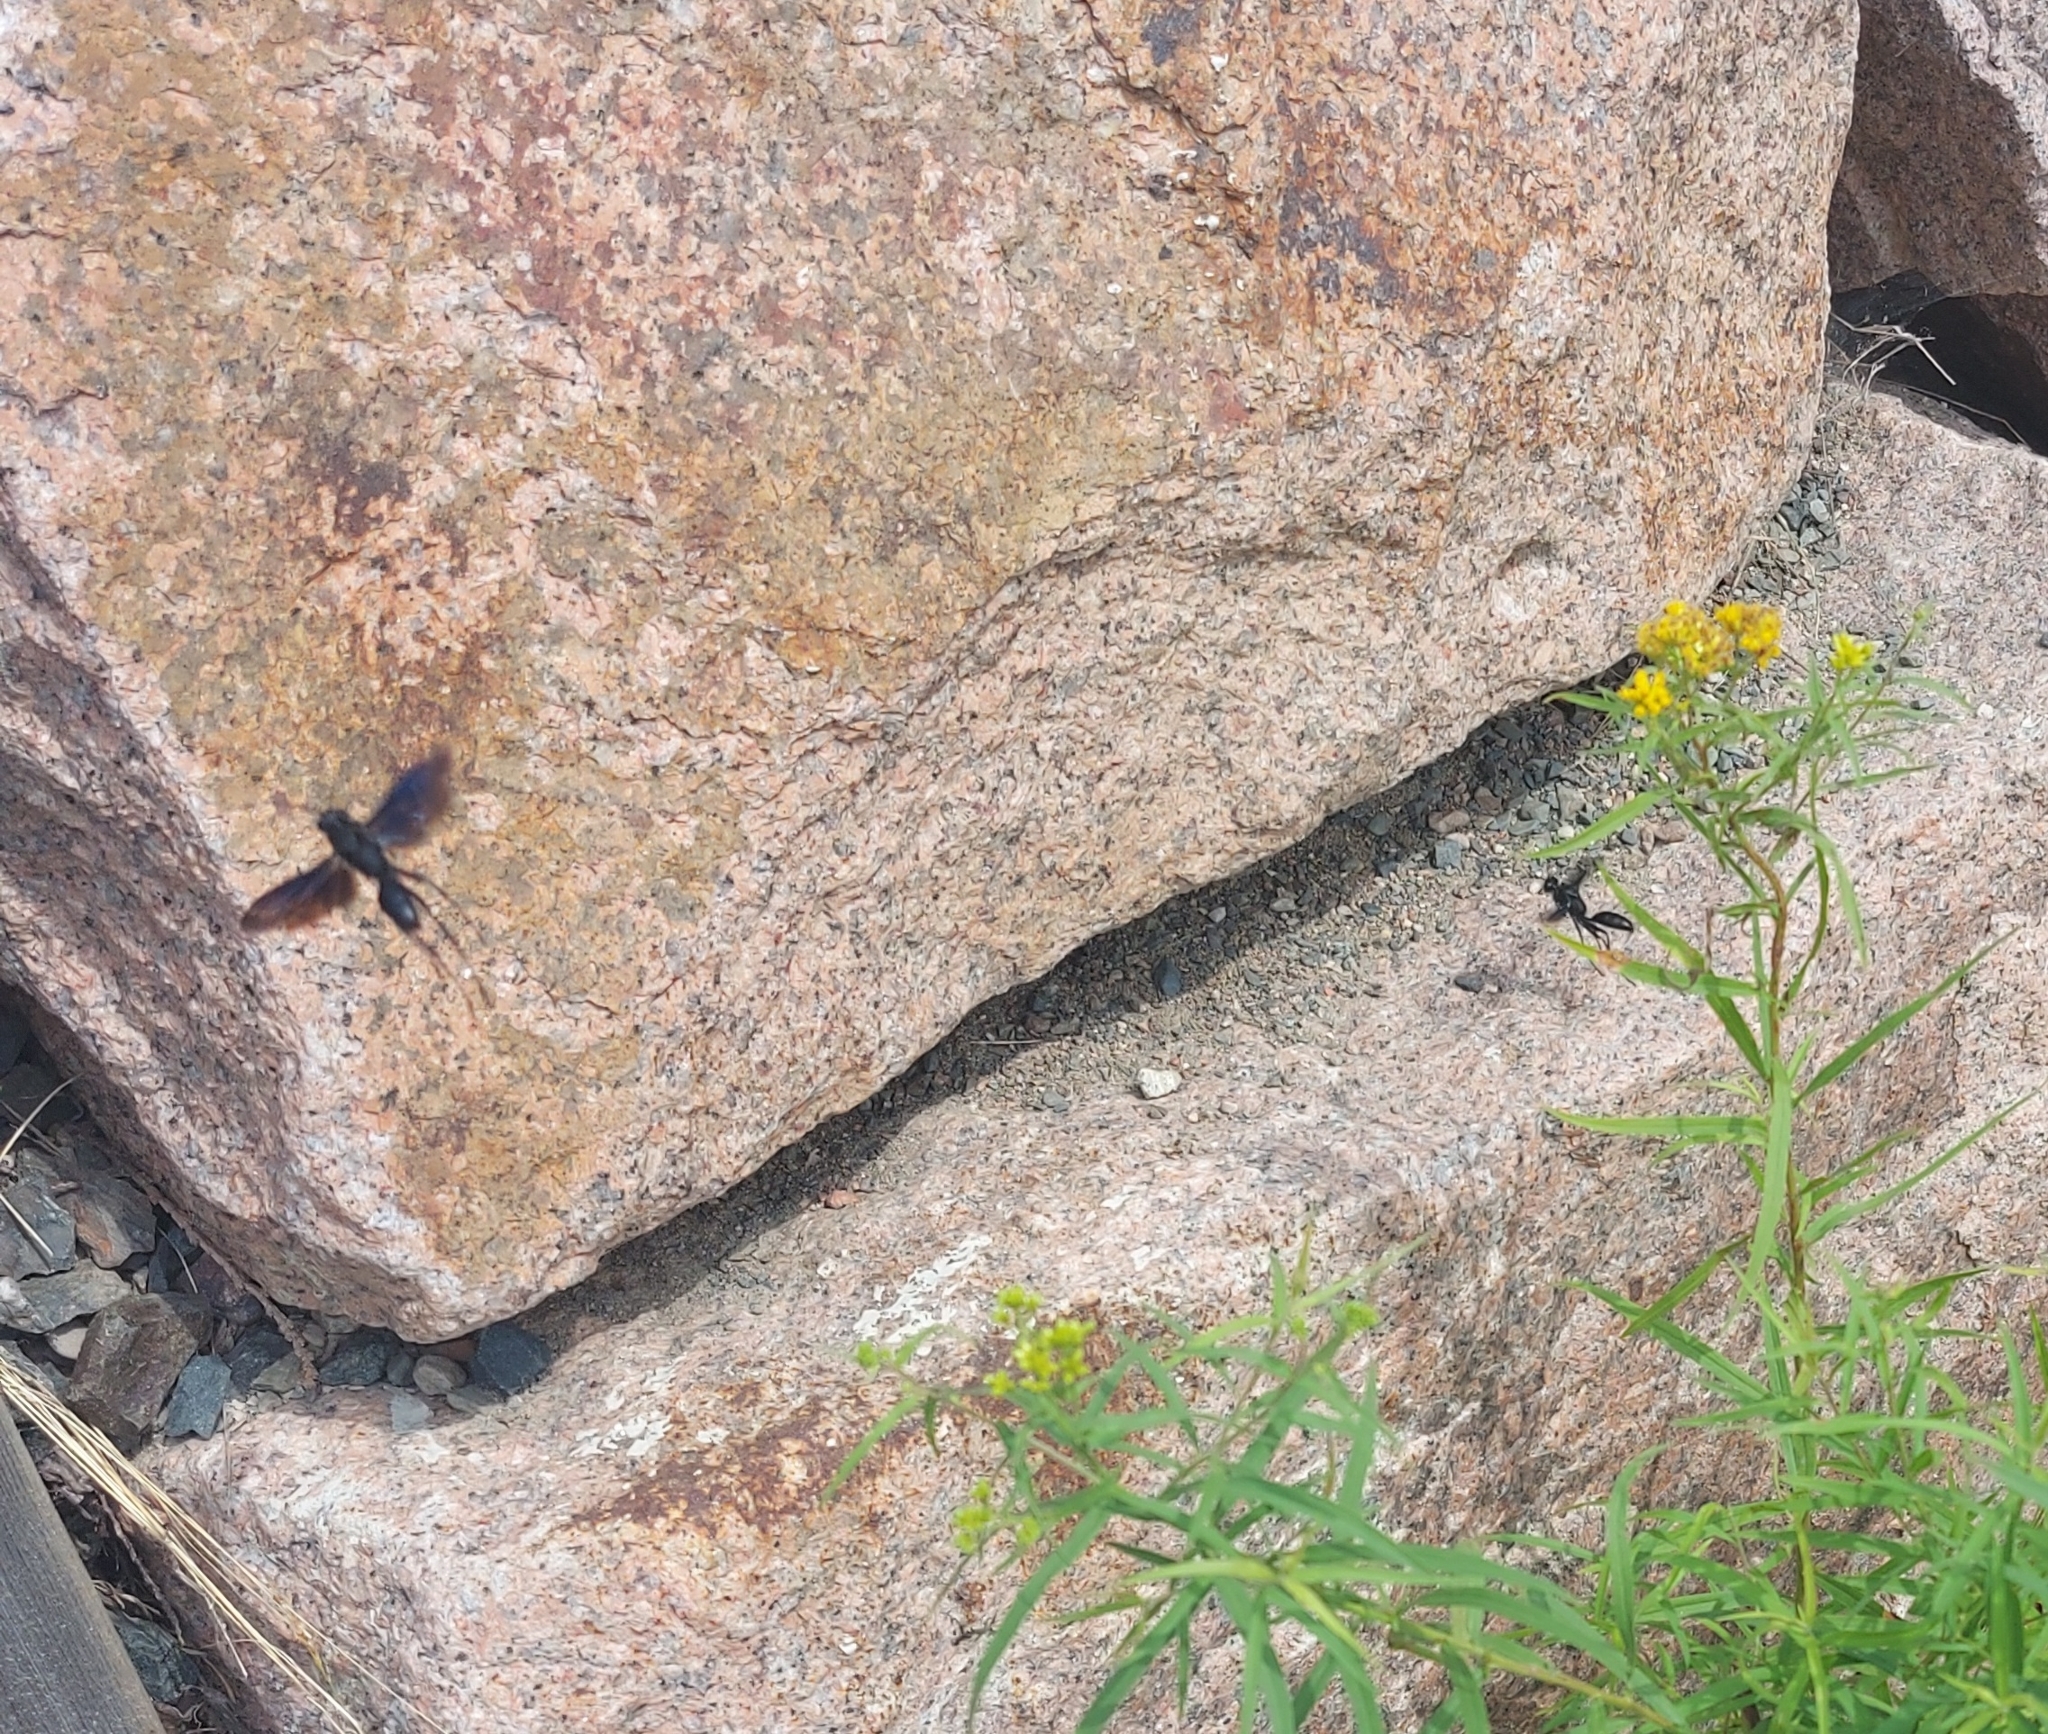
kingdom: Animalia
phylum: Arthropoda
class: Insecta
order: Hymenoptera
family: Sphecidae
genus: Sphex
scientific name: Sphex pensylvanicus
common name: Great black digger wasp
